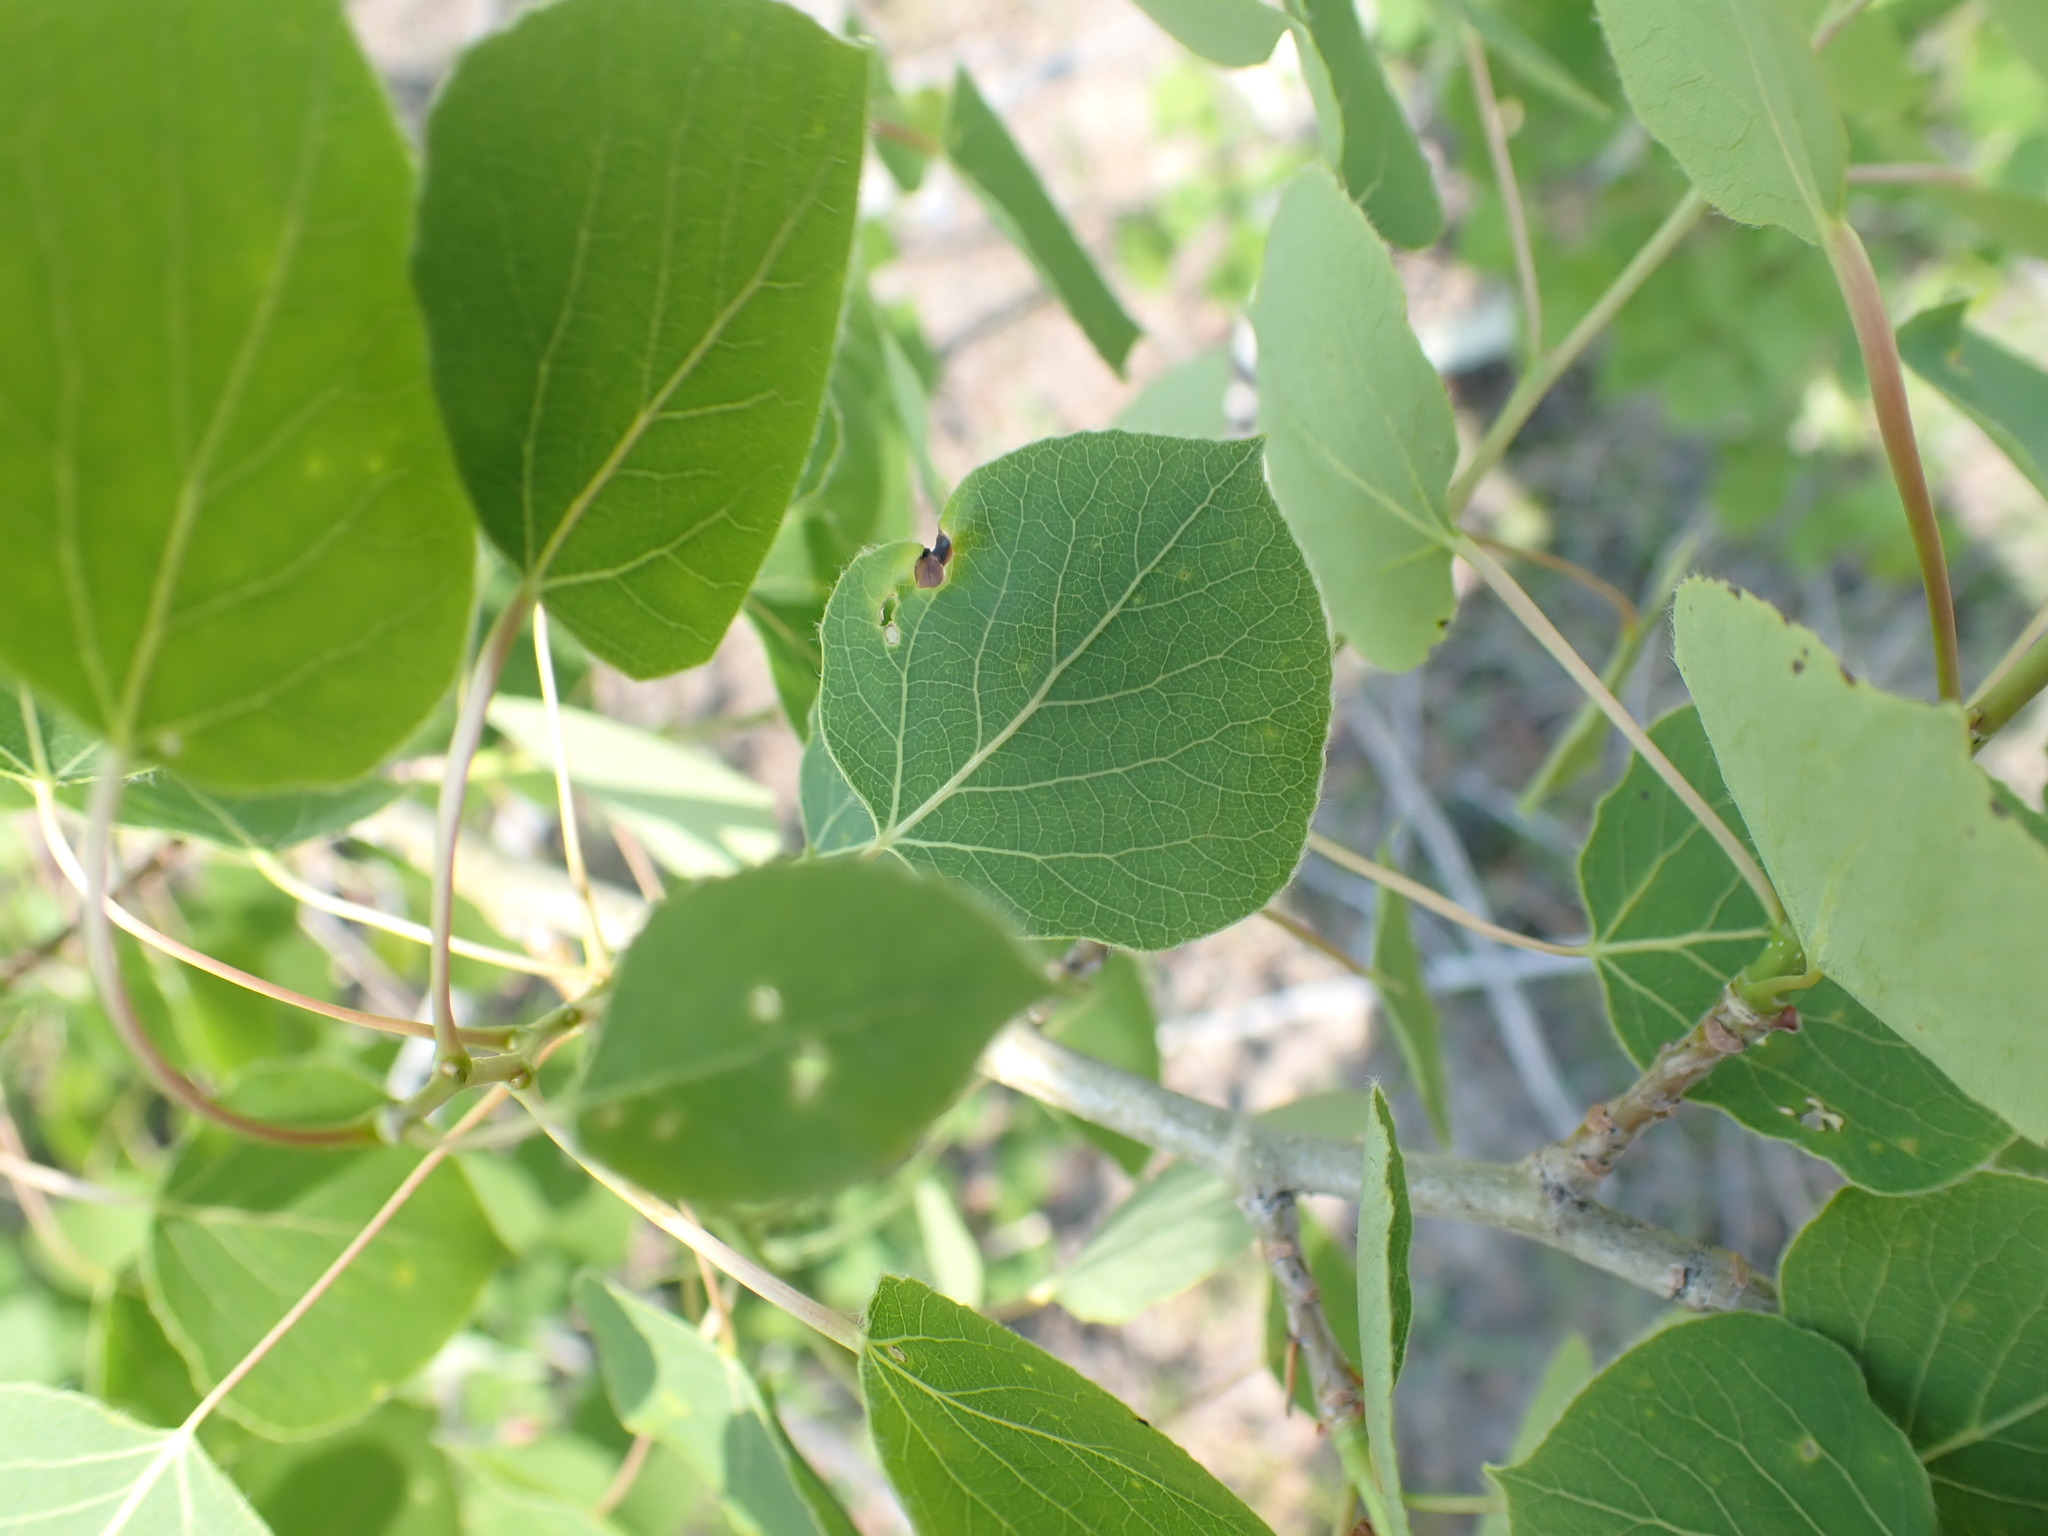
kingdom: Plantae
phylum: Tracheophyta
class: Magnoliopsida
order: Malpighiales
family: Salicaceae
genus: Populus
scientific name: Populus tremuloides
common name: Quaking aspen
